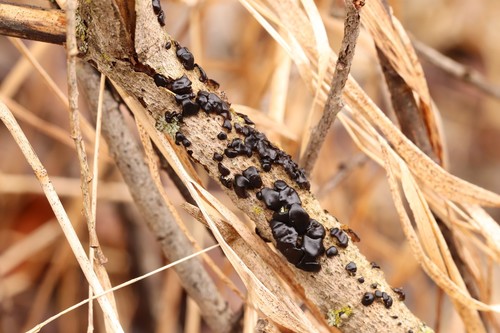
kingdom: Fungi
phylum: Basidiomycota
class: Agaricomycetes
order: Auriculariales
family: Auriculariaceae
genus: Exidia
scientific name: Exidia glandulosa
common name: Witches' butter
